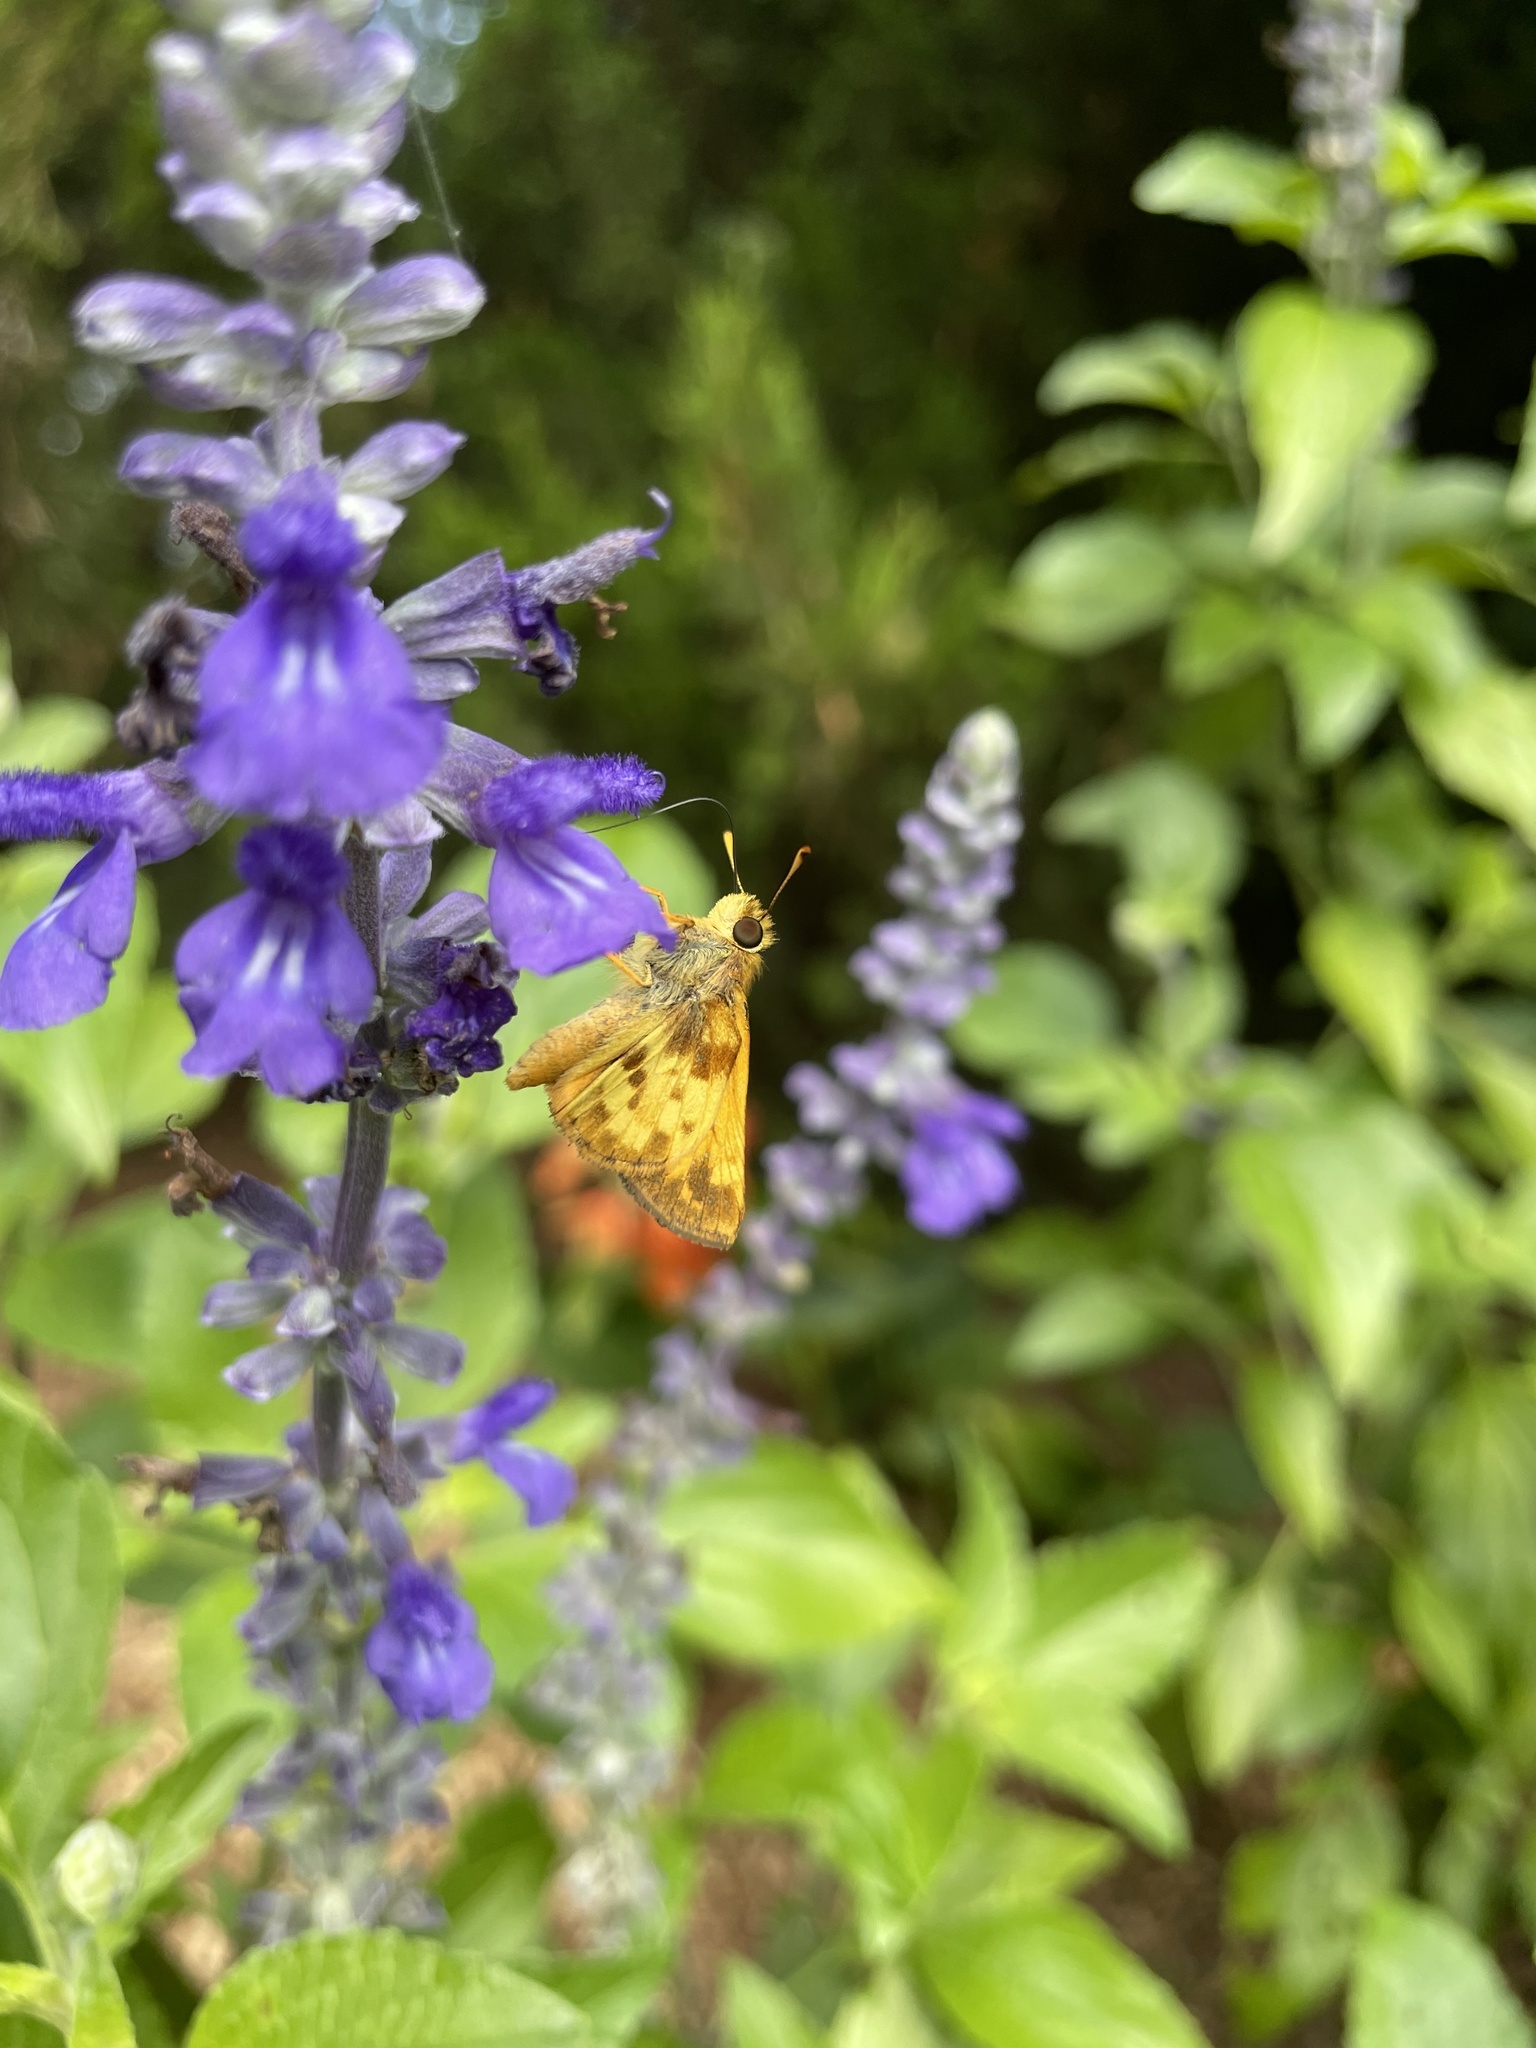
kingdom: Animalia
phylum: Arthropoda
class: Insecta
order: Lepidoptera
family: Hesperiidae
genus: Lon
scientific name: Lon zabulon
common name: Zabulon skipper
